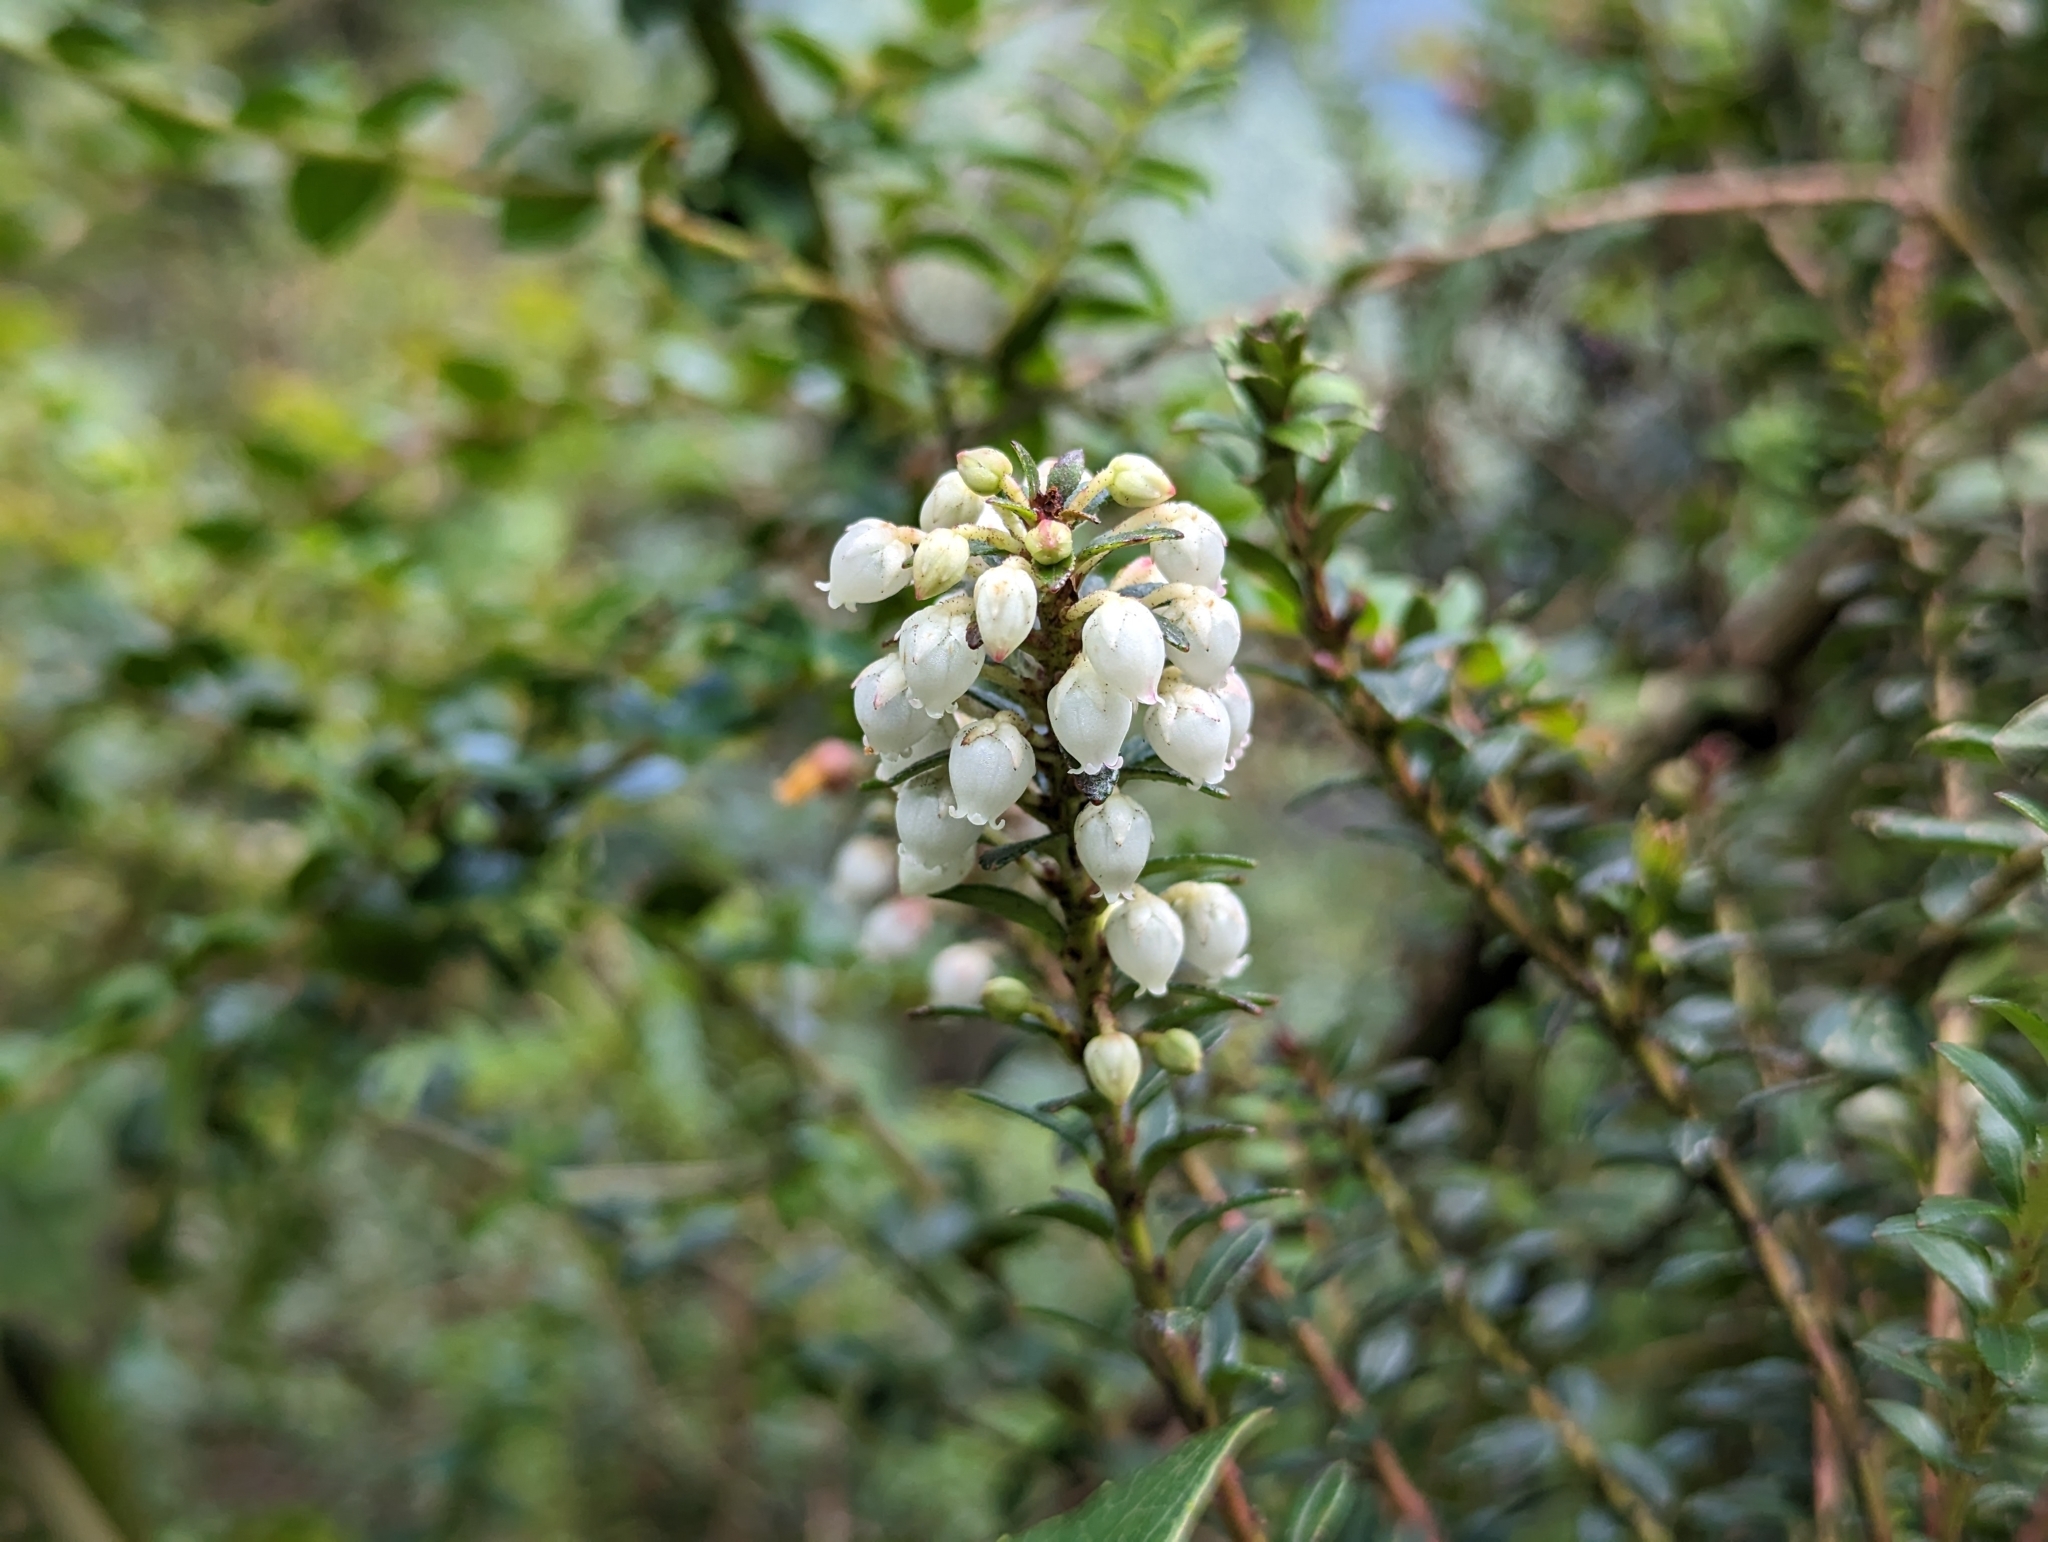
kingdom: Plantae
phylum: Tracheophyta
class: Magnoliopsida
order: Ericales
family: Ericaceae
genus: Gaultheria
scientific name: Gaultheria myrsinoides
